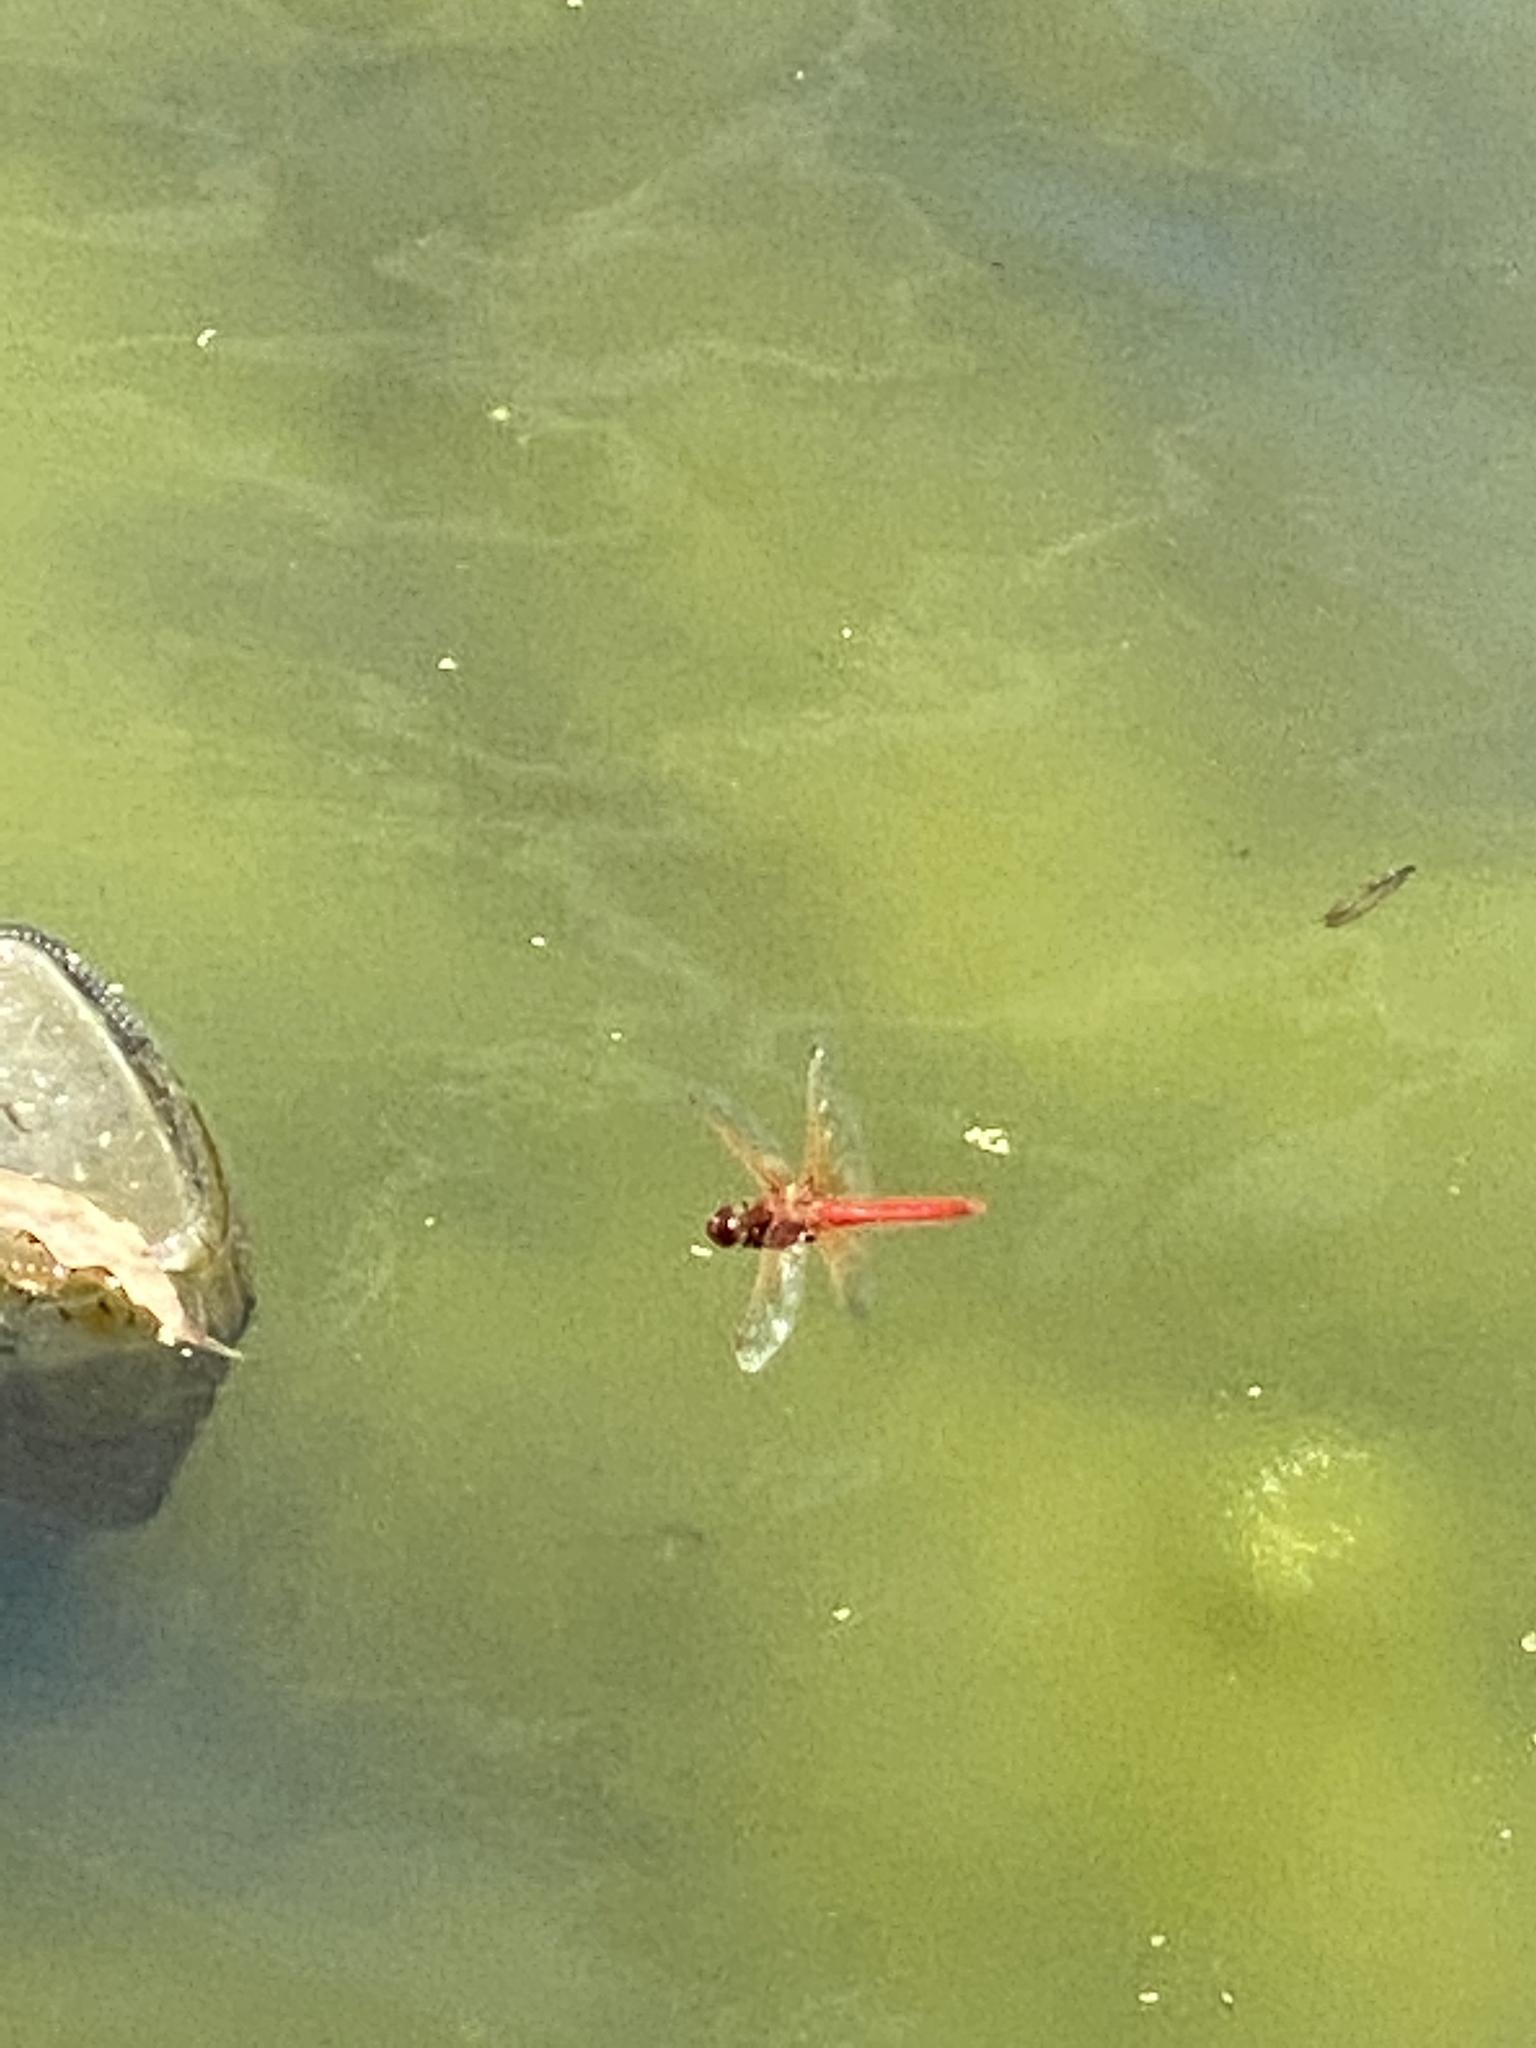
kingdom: Animalia
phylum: Arthropoda
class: Insecta
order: Odonata
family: Libellulidae
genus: Sympetrum
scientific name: Sympetrum illotum
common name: Cardinal meadowhawk
